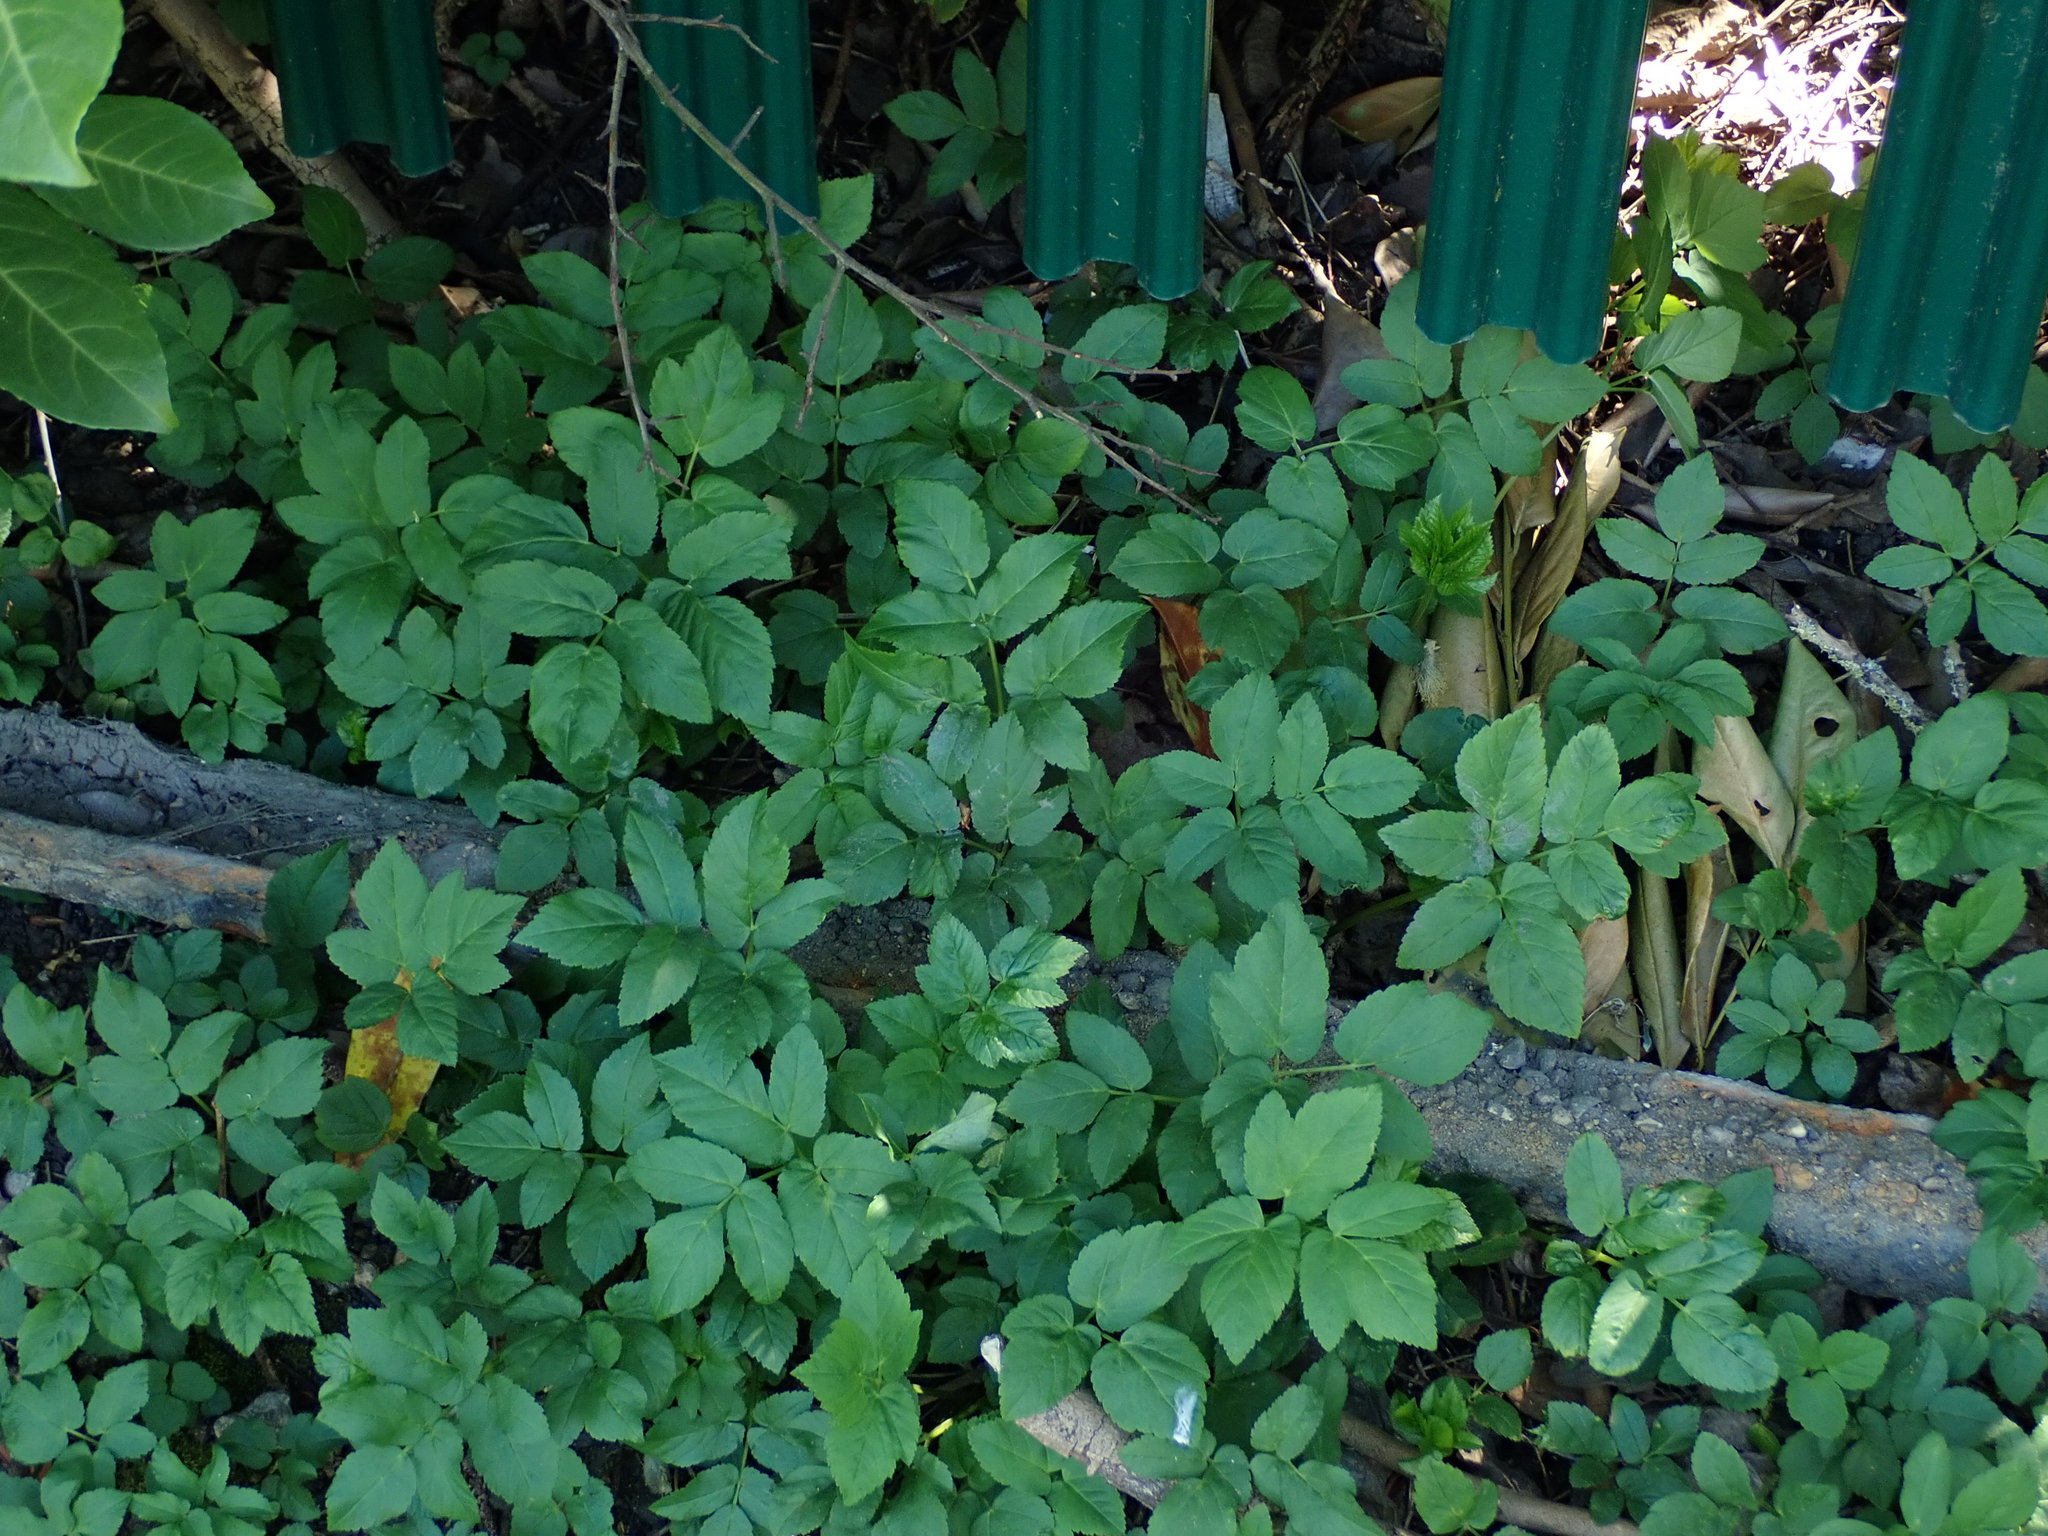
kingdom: Plantae
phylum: Tracheophyta
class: Magnoliopsida
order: Apiales
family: Apiaceae
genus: Aegopodium
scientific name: Aegopodium podagraria
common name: Ground-elder
